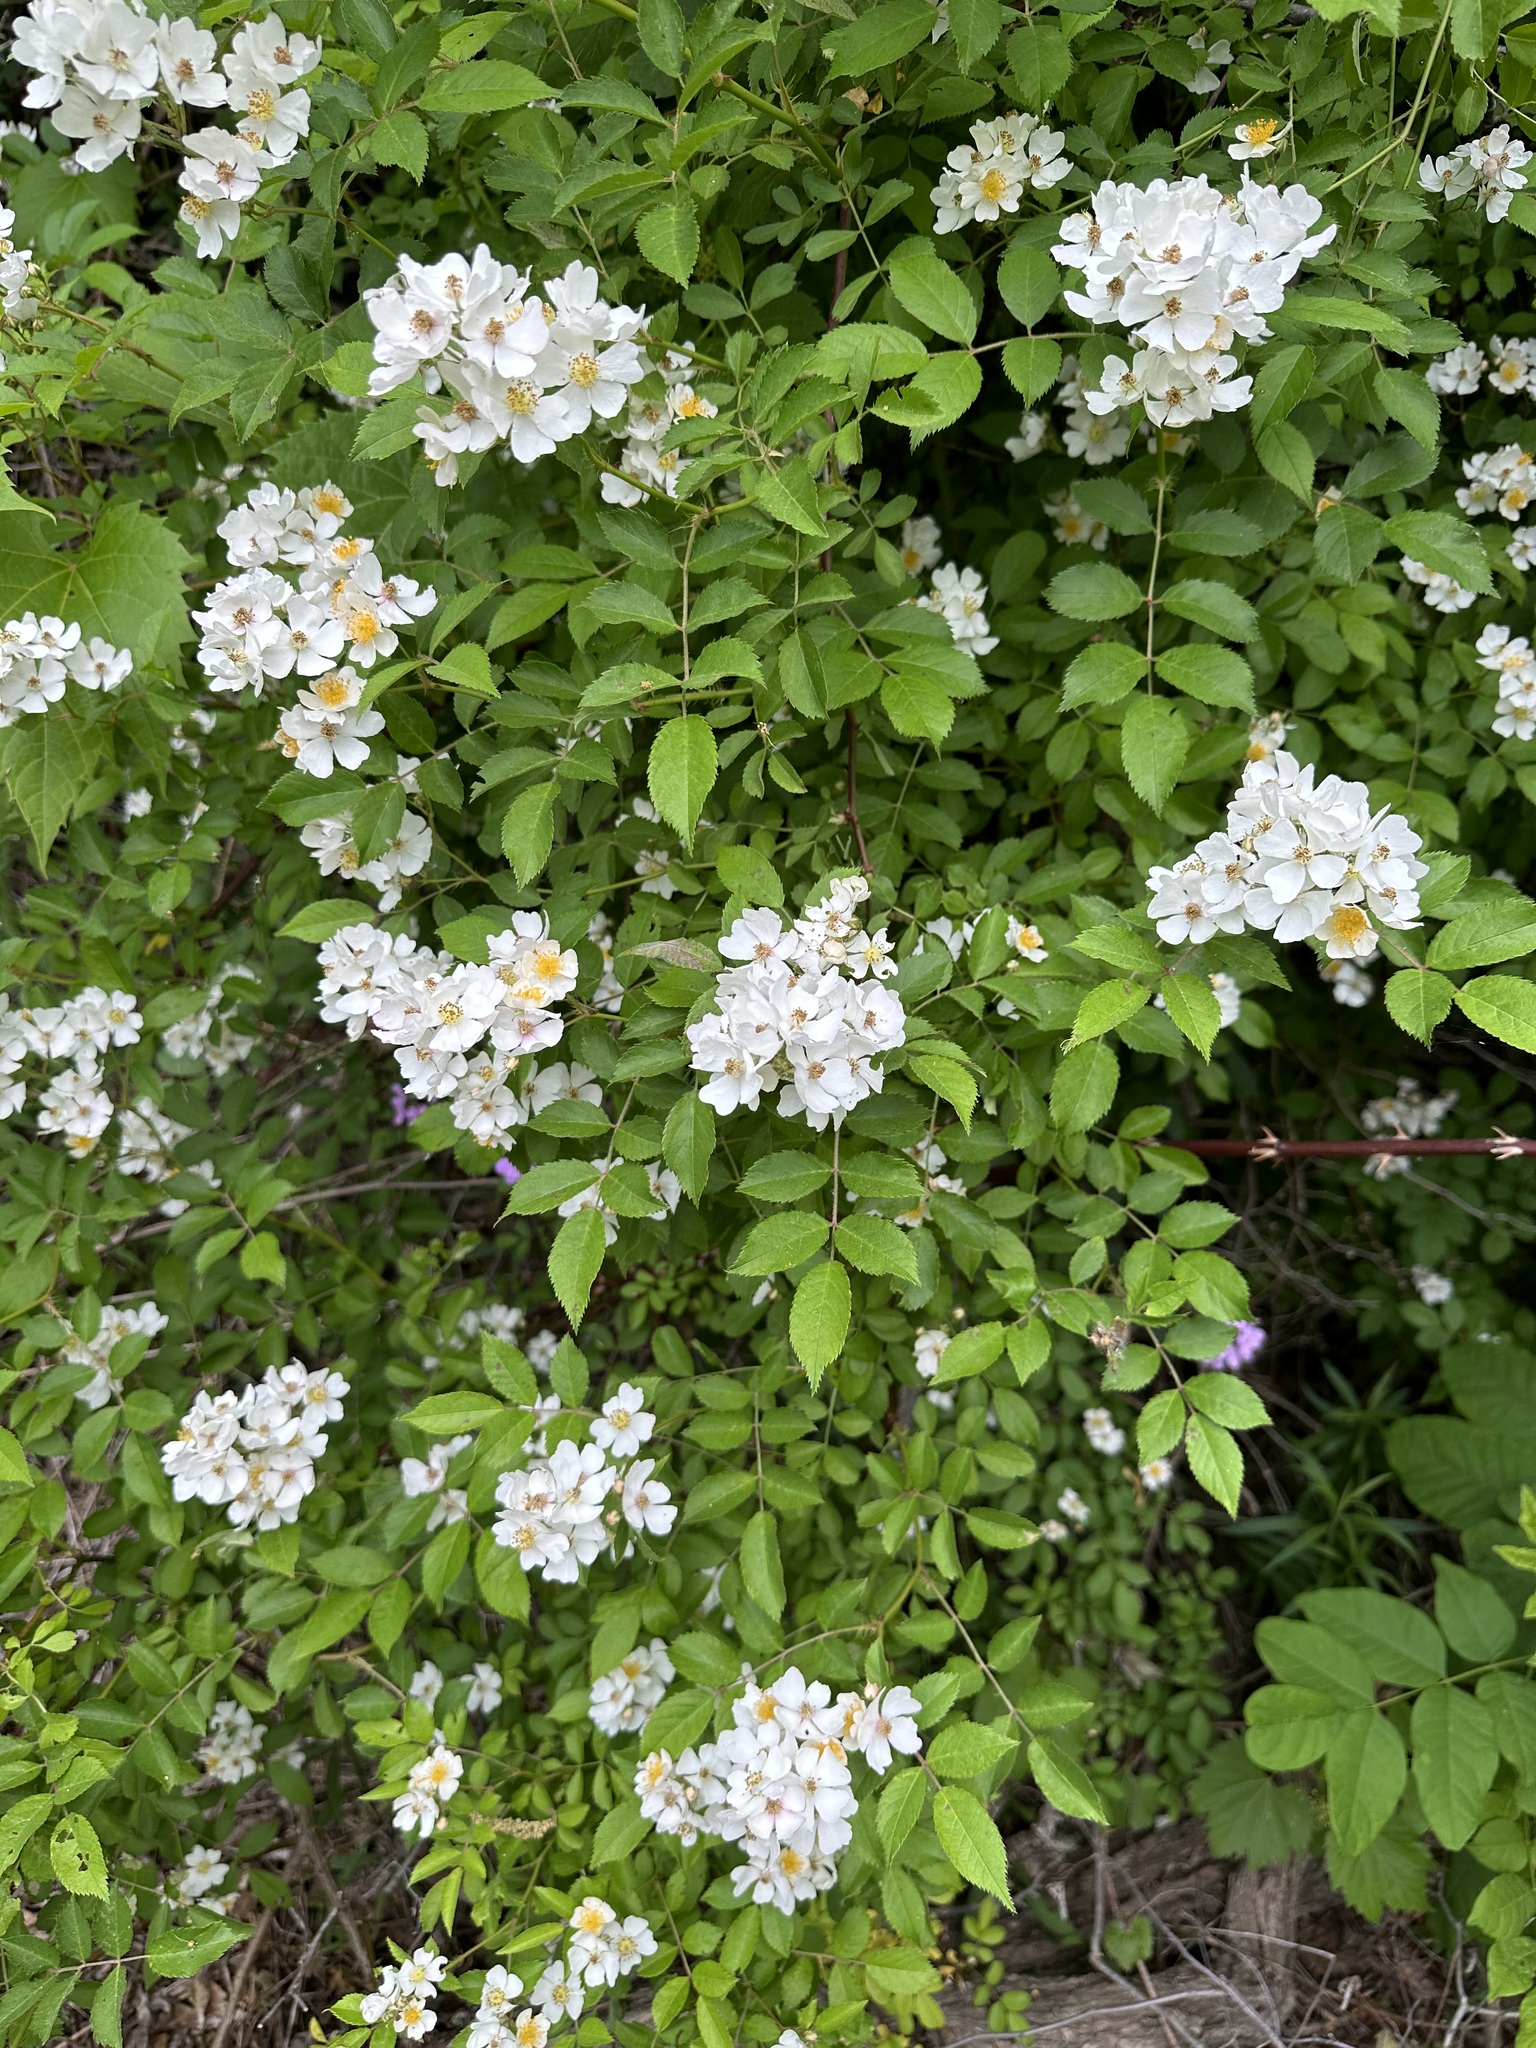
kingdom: Plantae
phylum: Tracheophyta
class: Magnoliopsida
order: Rosales
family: Rosaceae
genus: Rosa
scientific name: Rosa multiflora
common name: Multiflora rose
